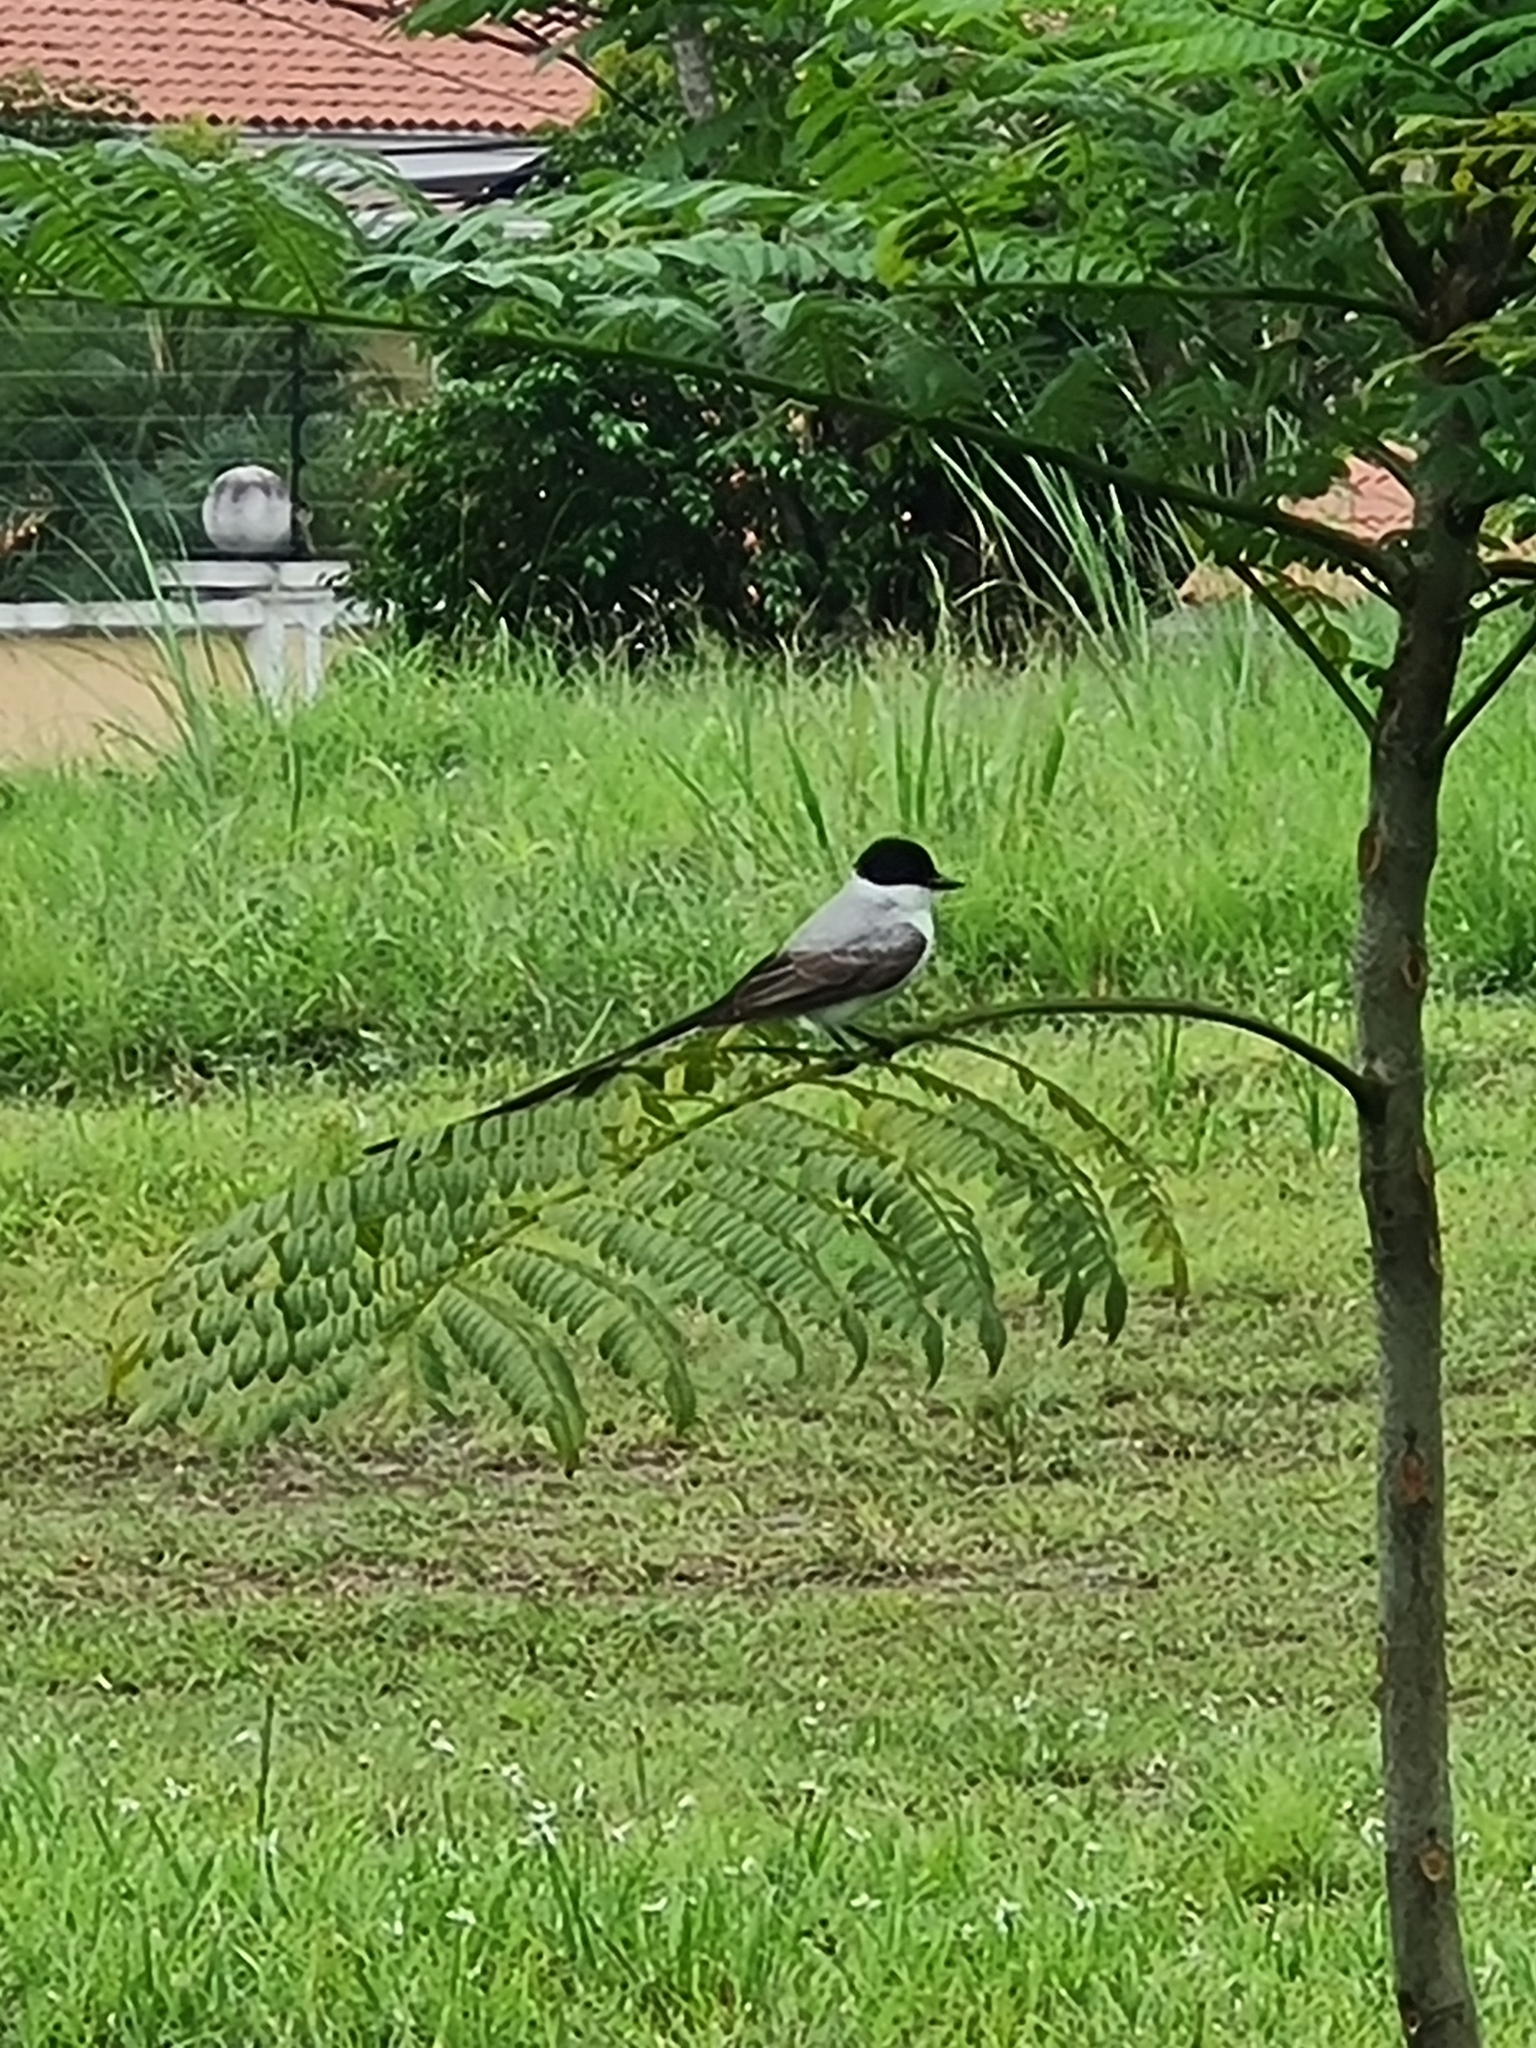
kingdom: Animalia
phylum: Chordata
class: Aves
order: Passeriformes
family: Tyrannidae
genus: Tyrannus
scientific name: Tyrannus savana
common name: Fork-tailed flycatcher
